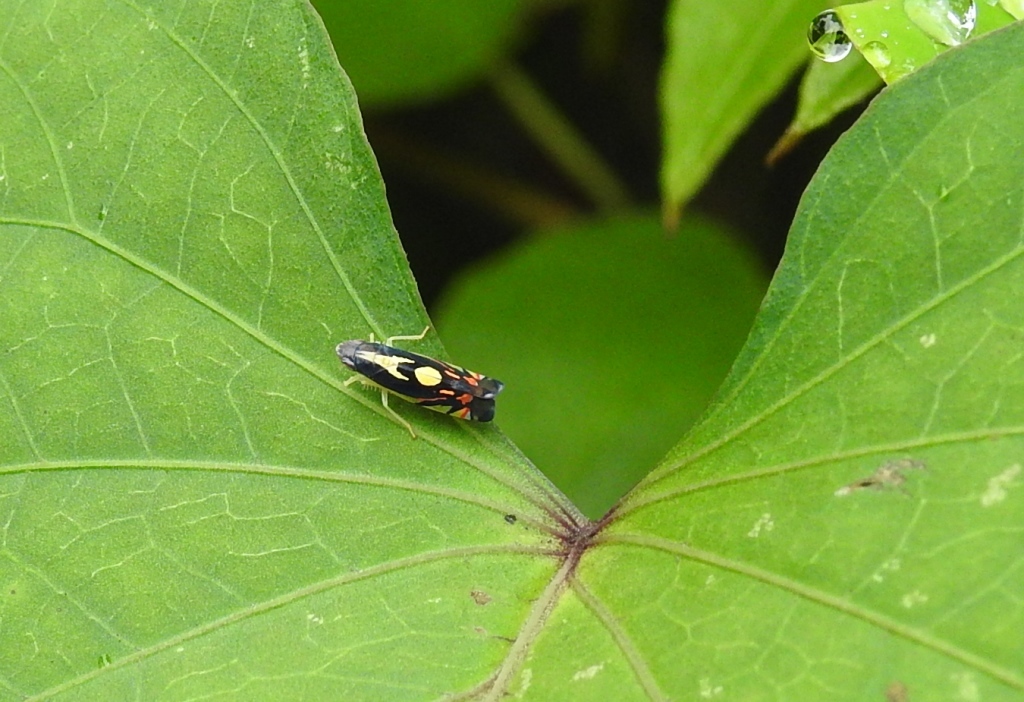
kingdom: Animalia
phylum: Arthropoda
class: Insecta
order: Hemiptera
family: Cicadellidae
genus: Diedrocephala
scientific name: Diedrocephala variegata
